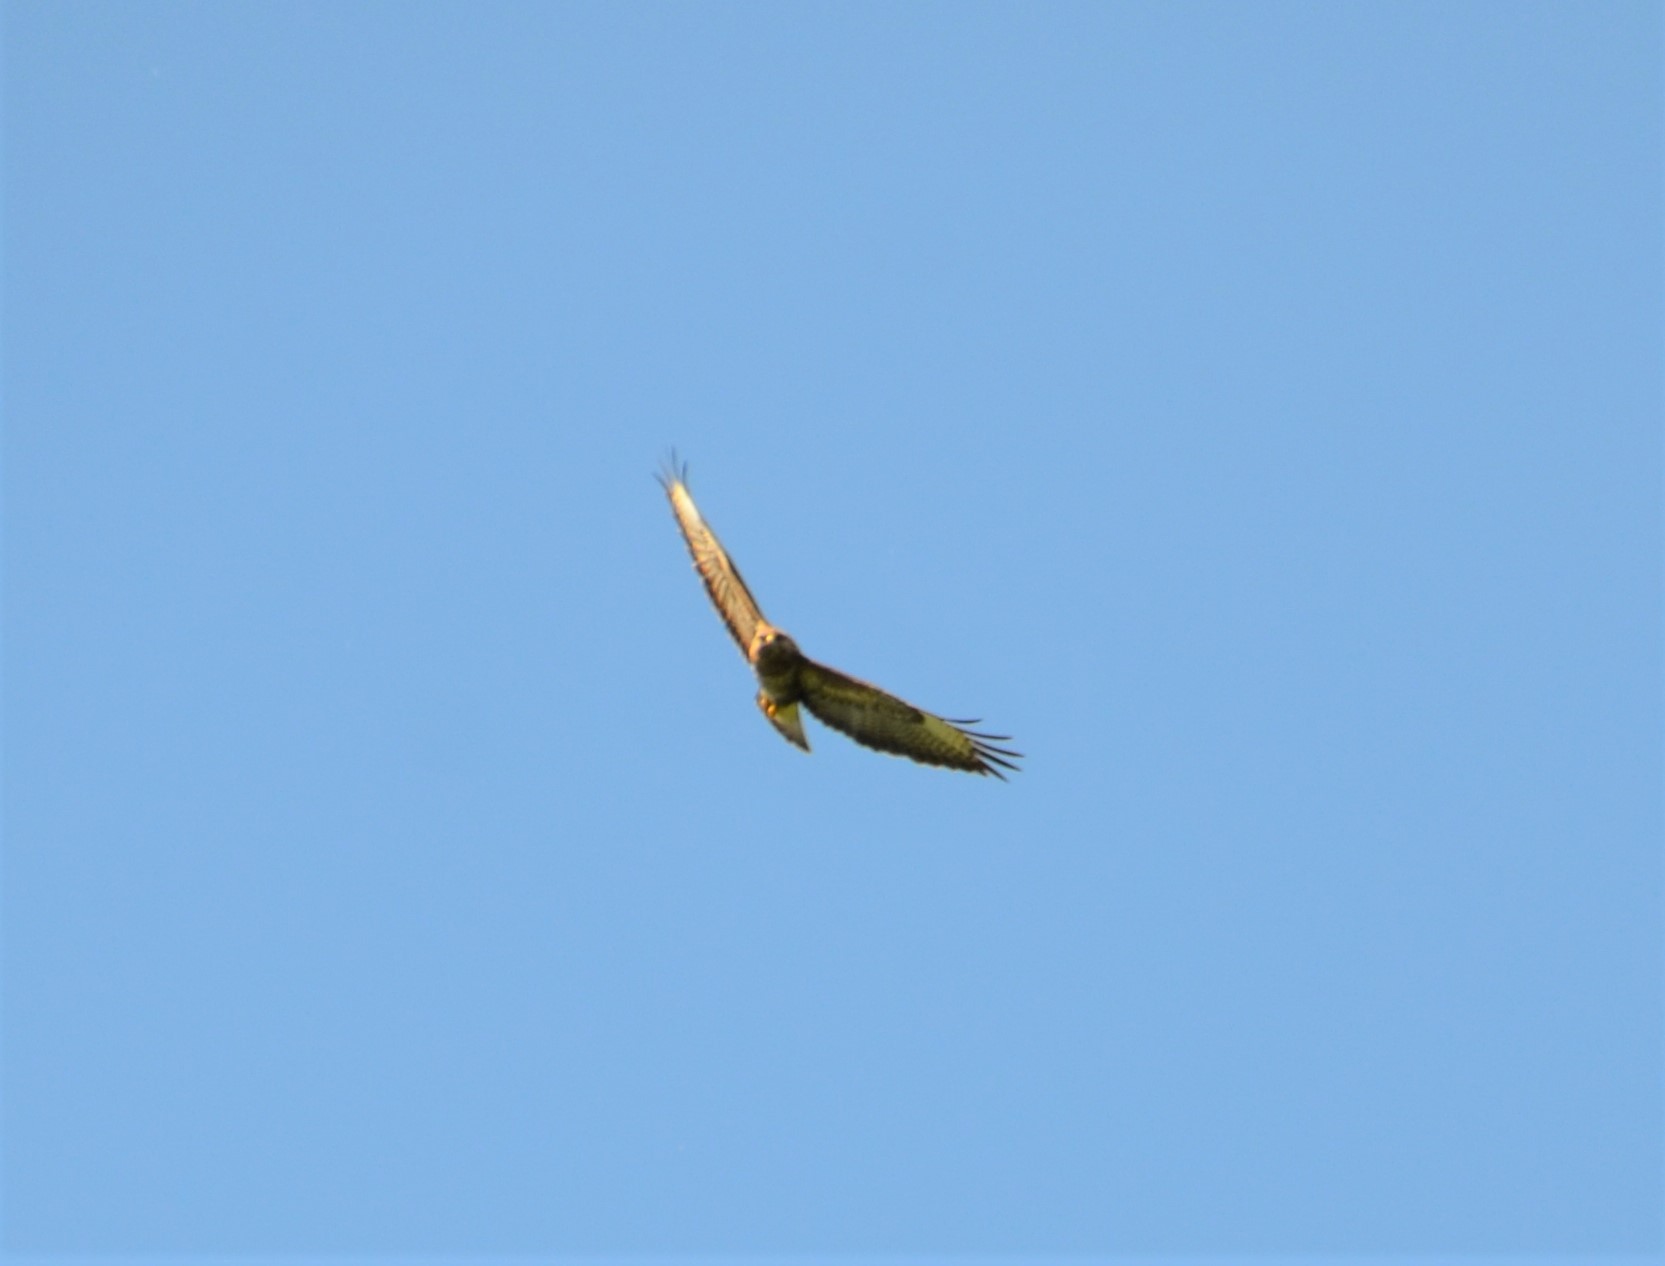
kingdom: Animalia
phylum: Chordata
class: Aves
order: Accipitriformes
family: Accipitridae
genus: Buteo
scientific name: Buteo buteo
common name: Common buzzard
